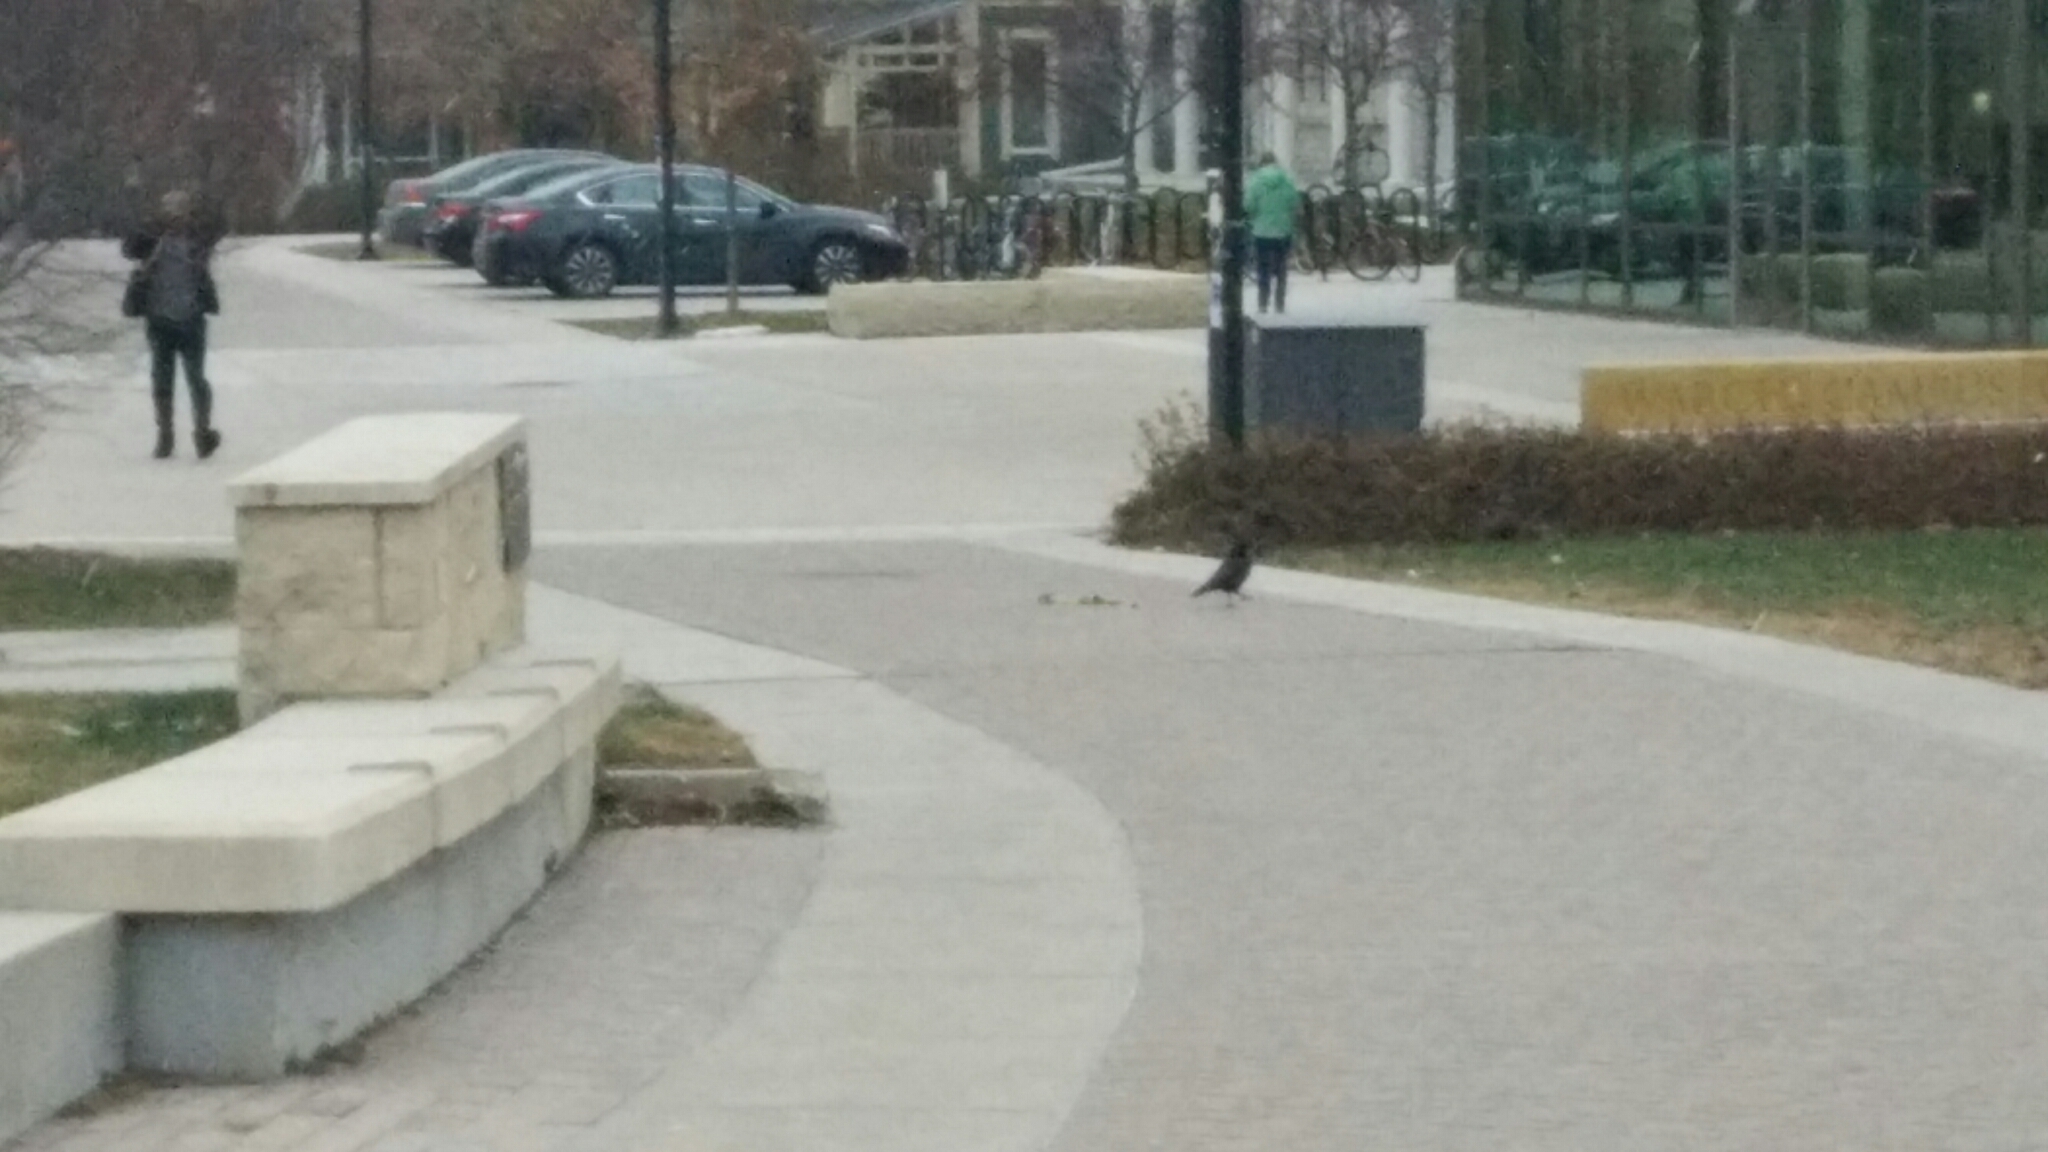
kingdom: Animalia
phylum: Chordata
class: Aves
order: Passeriformes
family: Corvidae
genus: Corvus
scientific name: Corvus brachyrhynchos
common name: American crow
